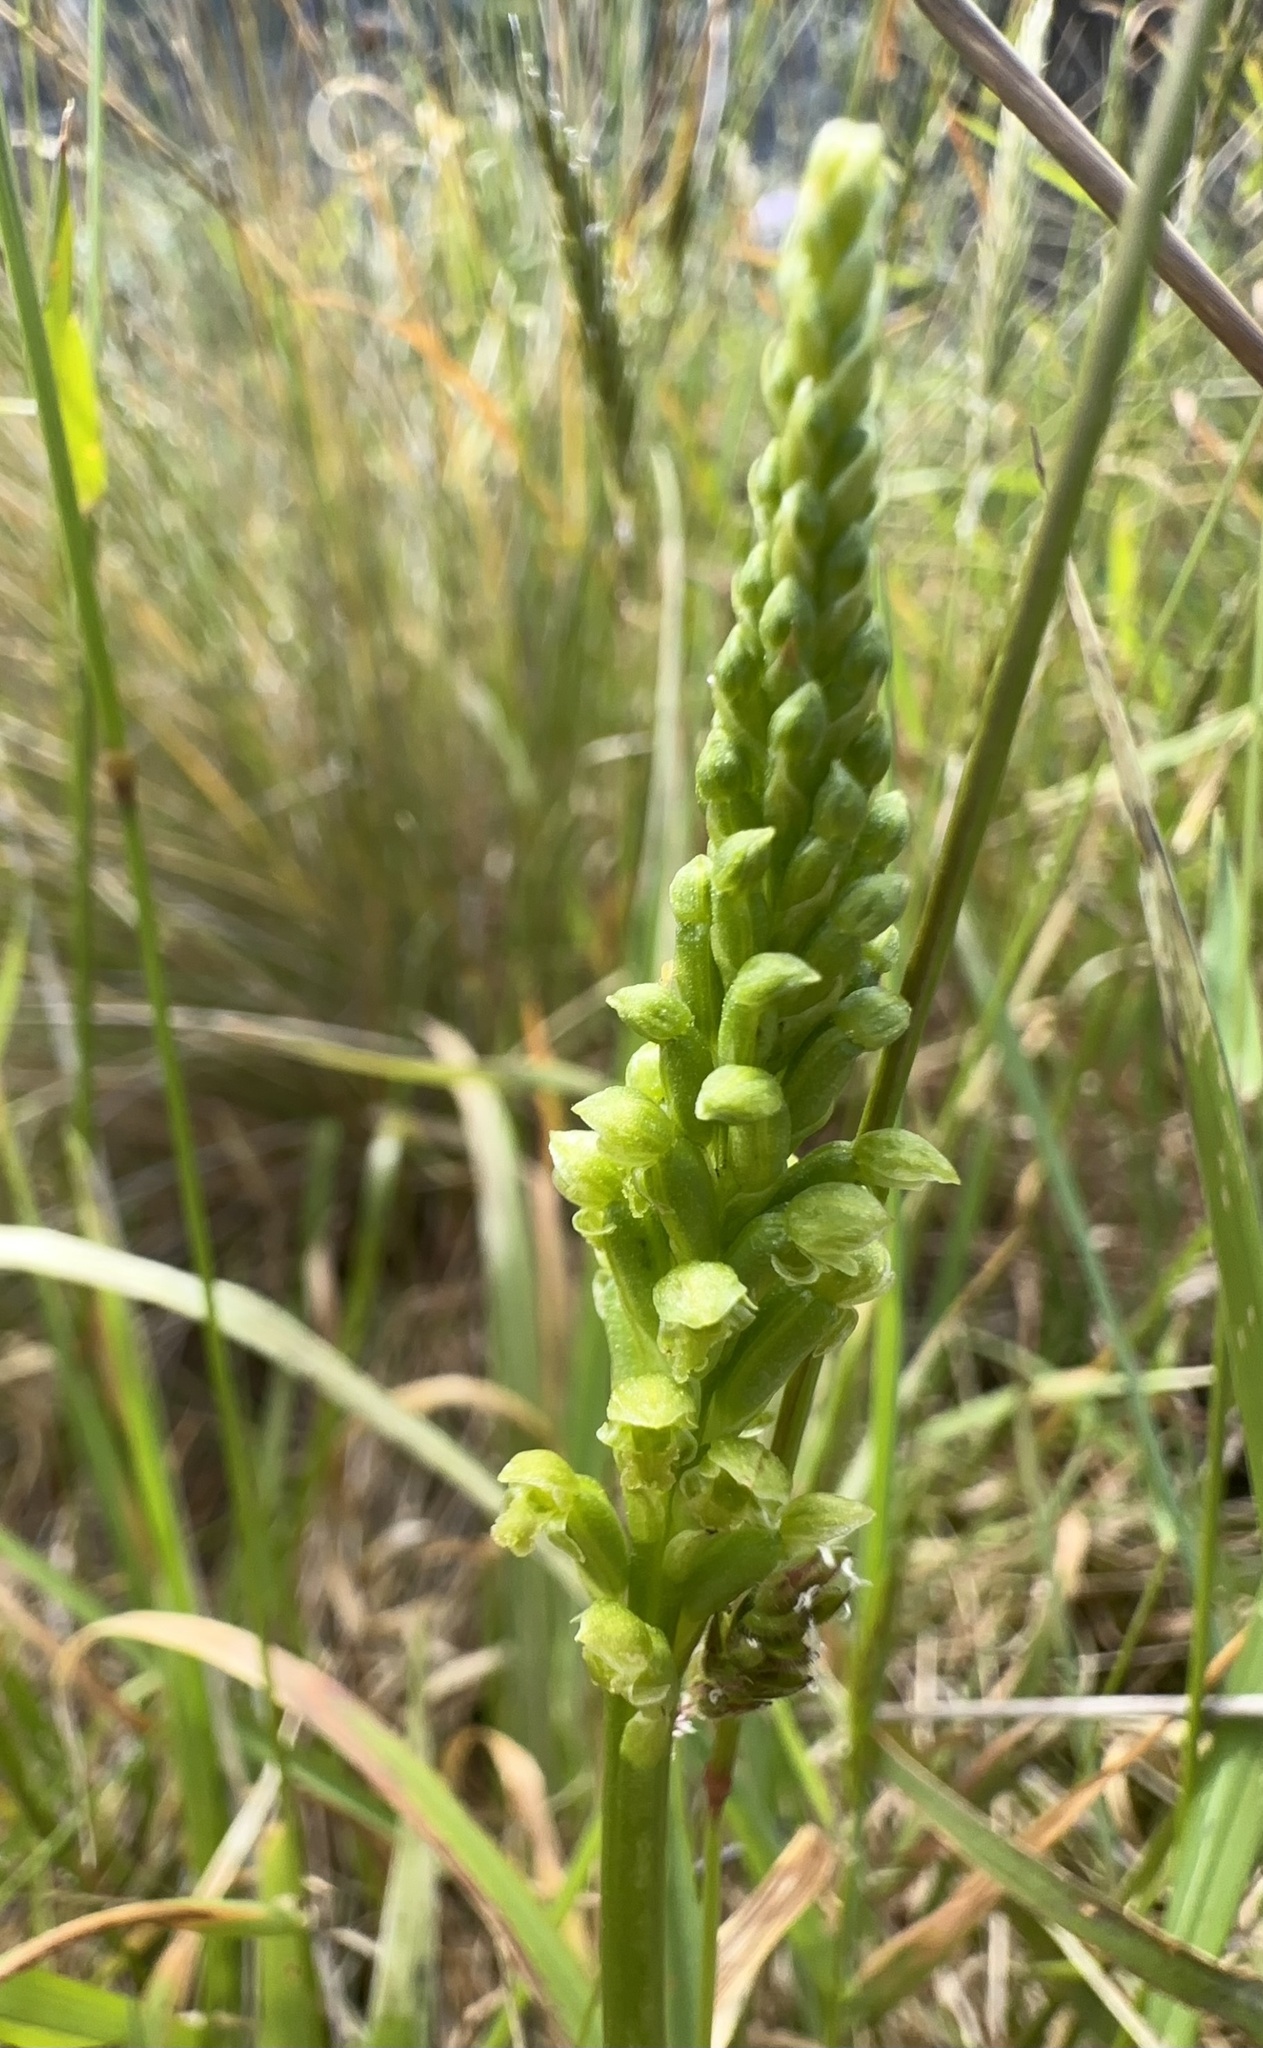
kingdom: Plantae
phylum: Tracheophyta
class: Liliopsida
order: Asparagales
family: Orchidaceae
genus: Microtis
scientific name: Microtis unifolia
